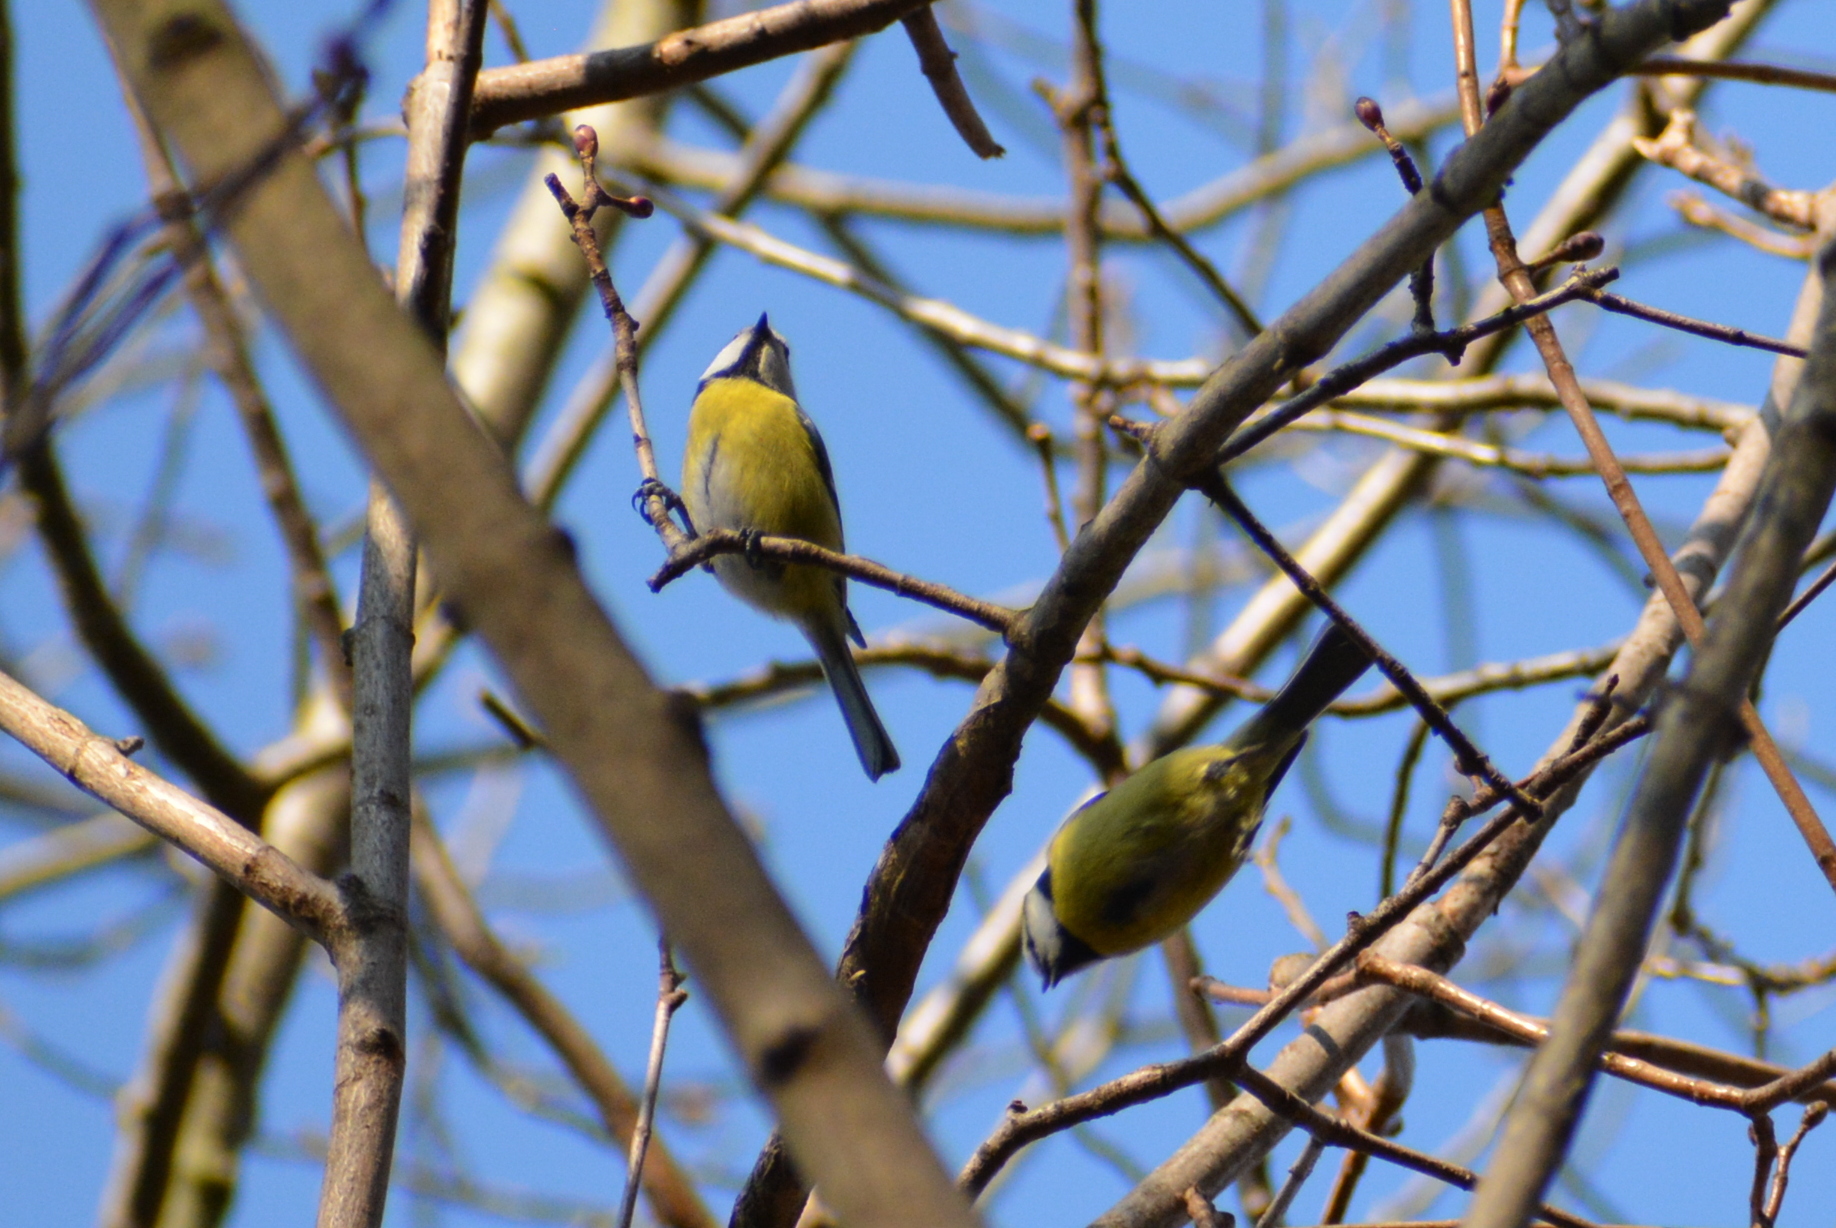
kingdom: Animalia
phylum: Chordata
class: Aves
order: Passeriformes
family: Paridae
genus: Cyanistes
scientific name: Cyanistes caeruleus
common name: Eurasian blue tit
